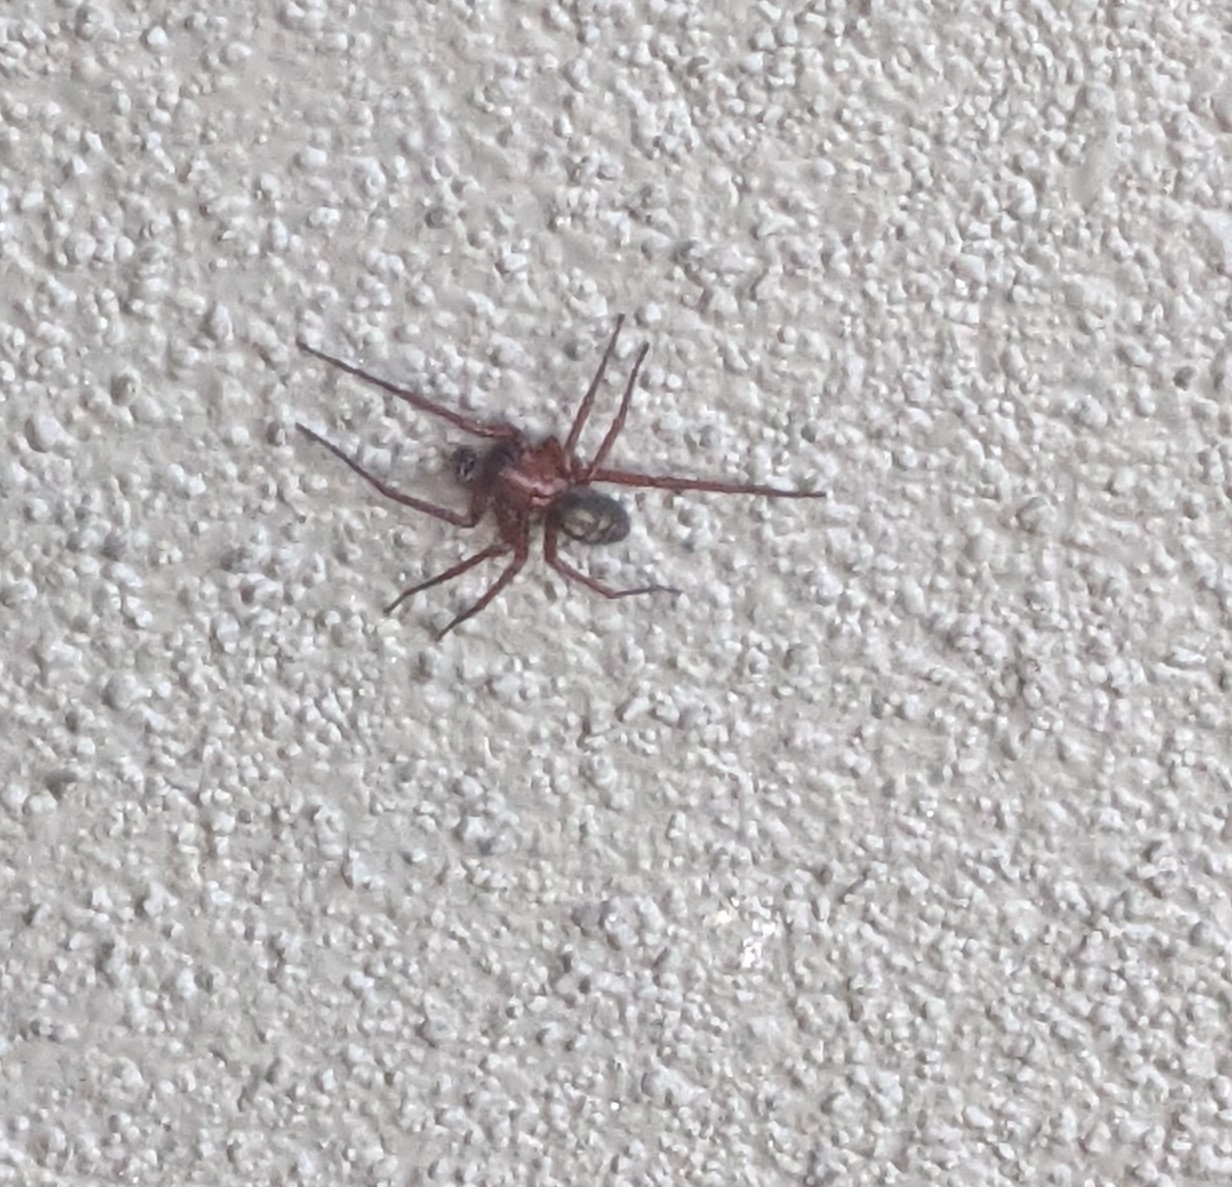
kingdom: Animalia
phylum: Arthropoda
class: Arachnida
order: Araneae
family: Amaurobiidae
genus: Callobius
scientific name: Callobius severus
